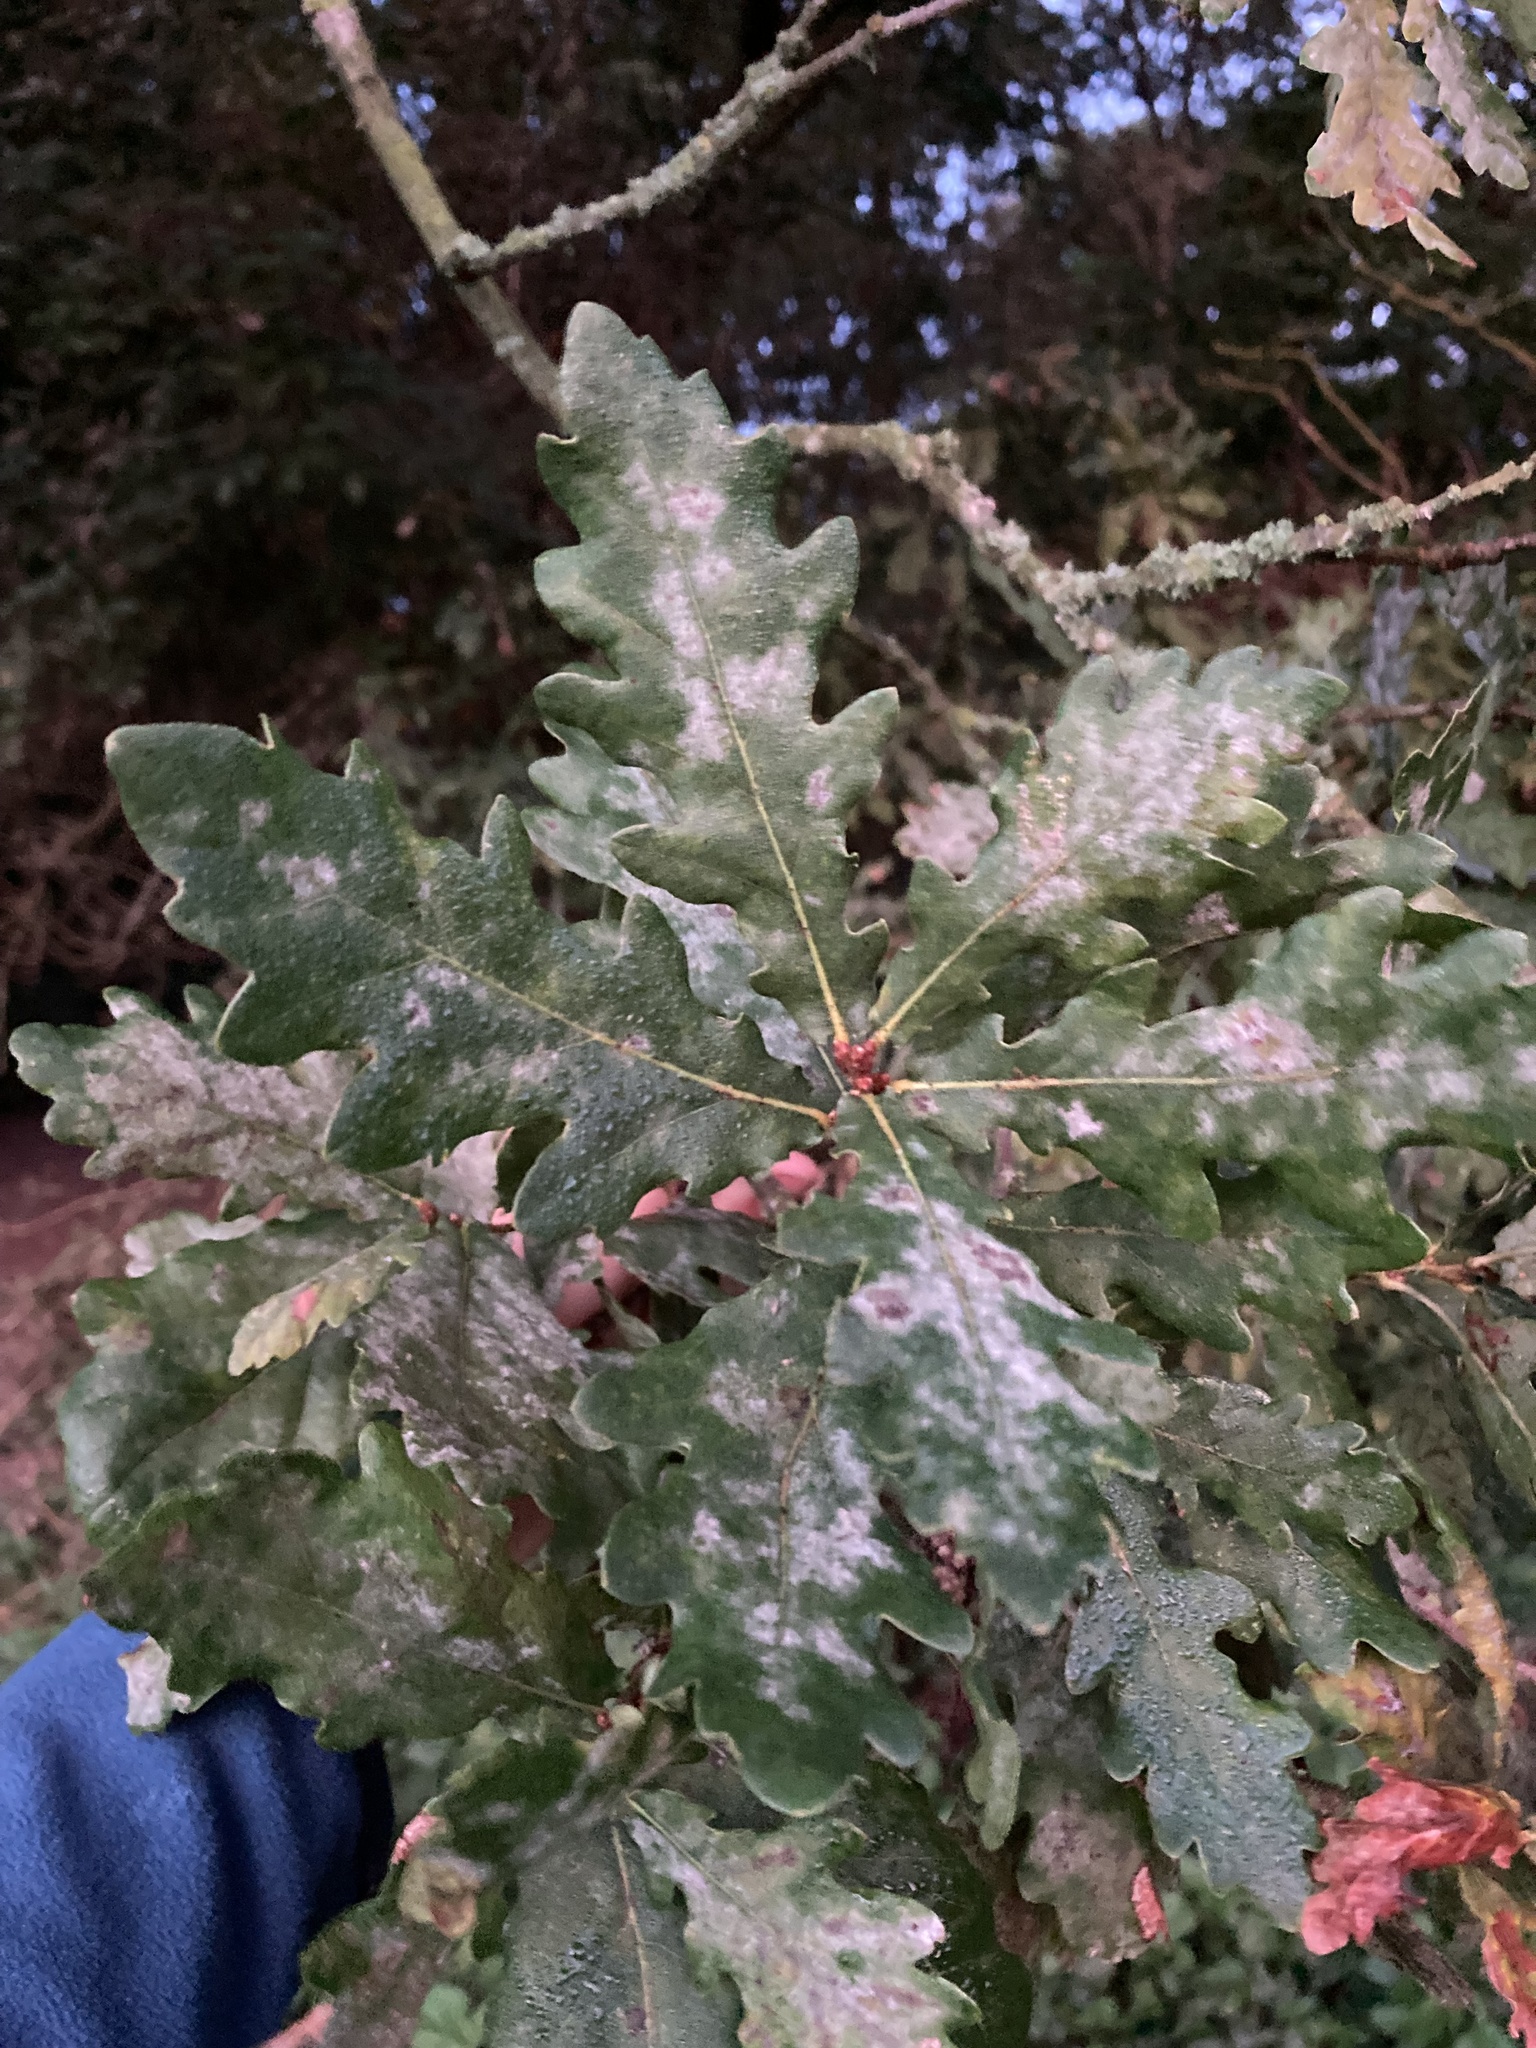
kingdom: Fungi
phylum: Ascomycota
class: Leotiomycetes
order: Helotiales
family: Erysiphaceae
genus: Erysiphe
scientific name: Erysiphe
